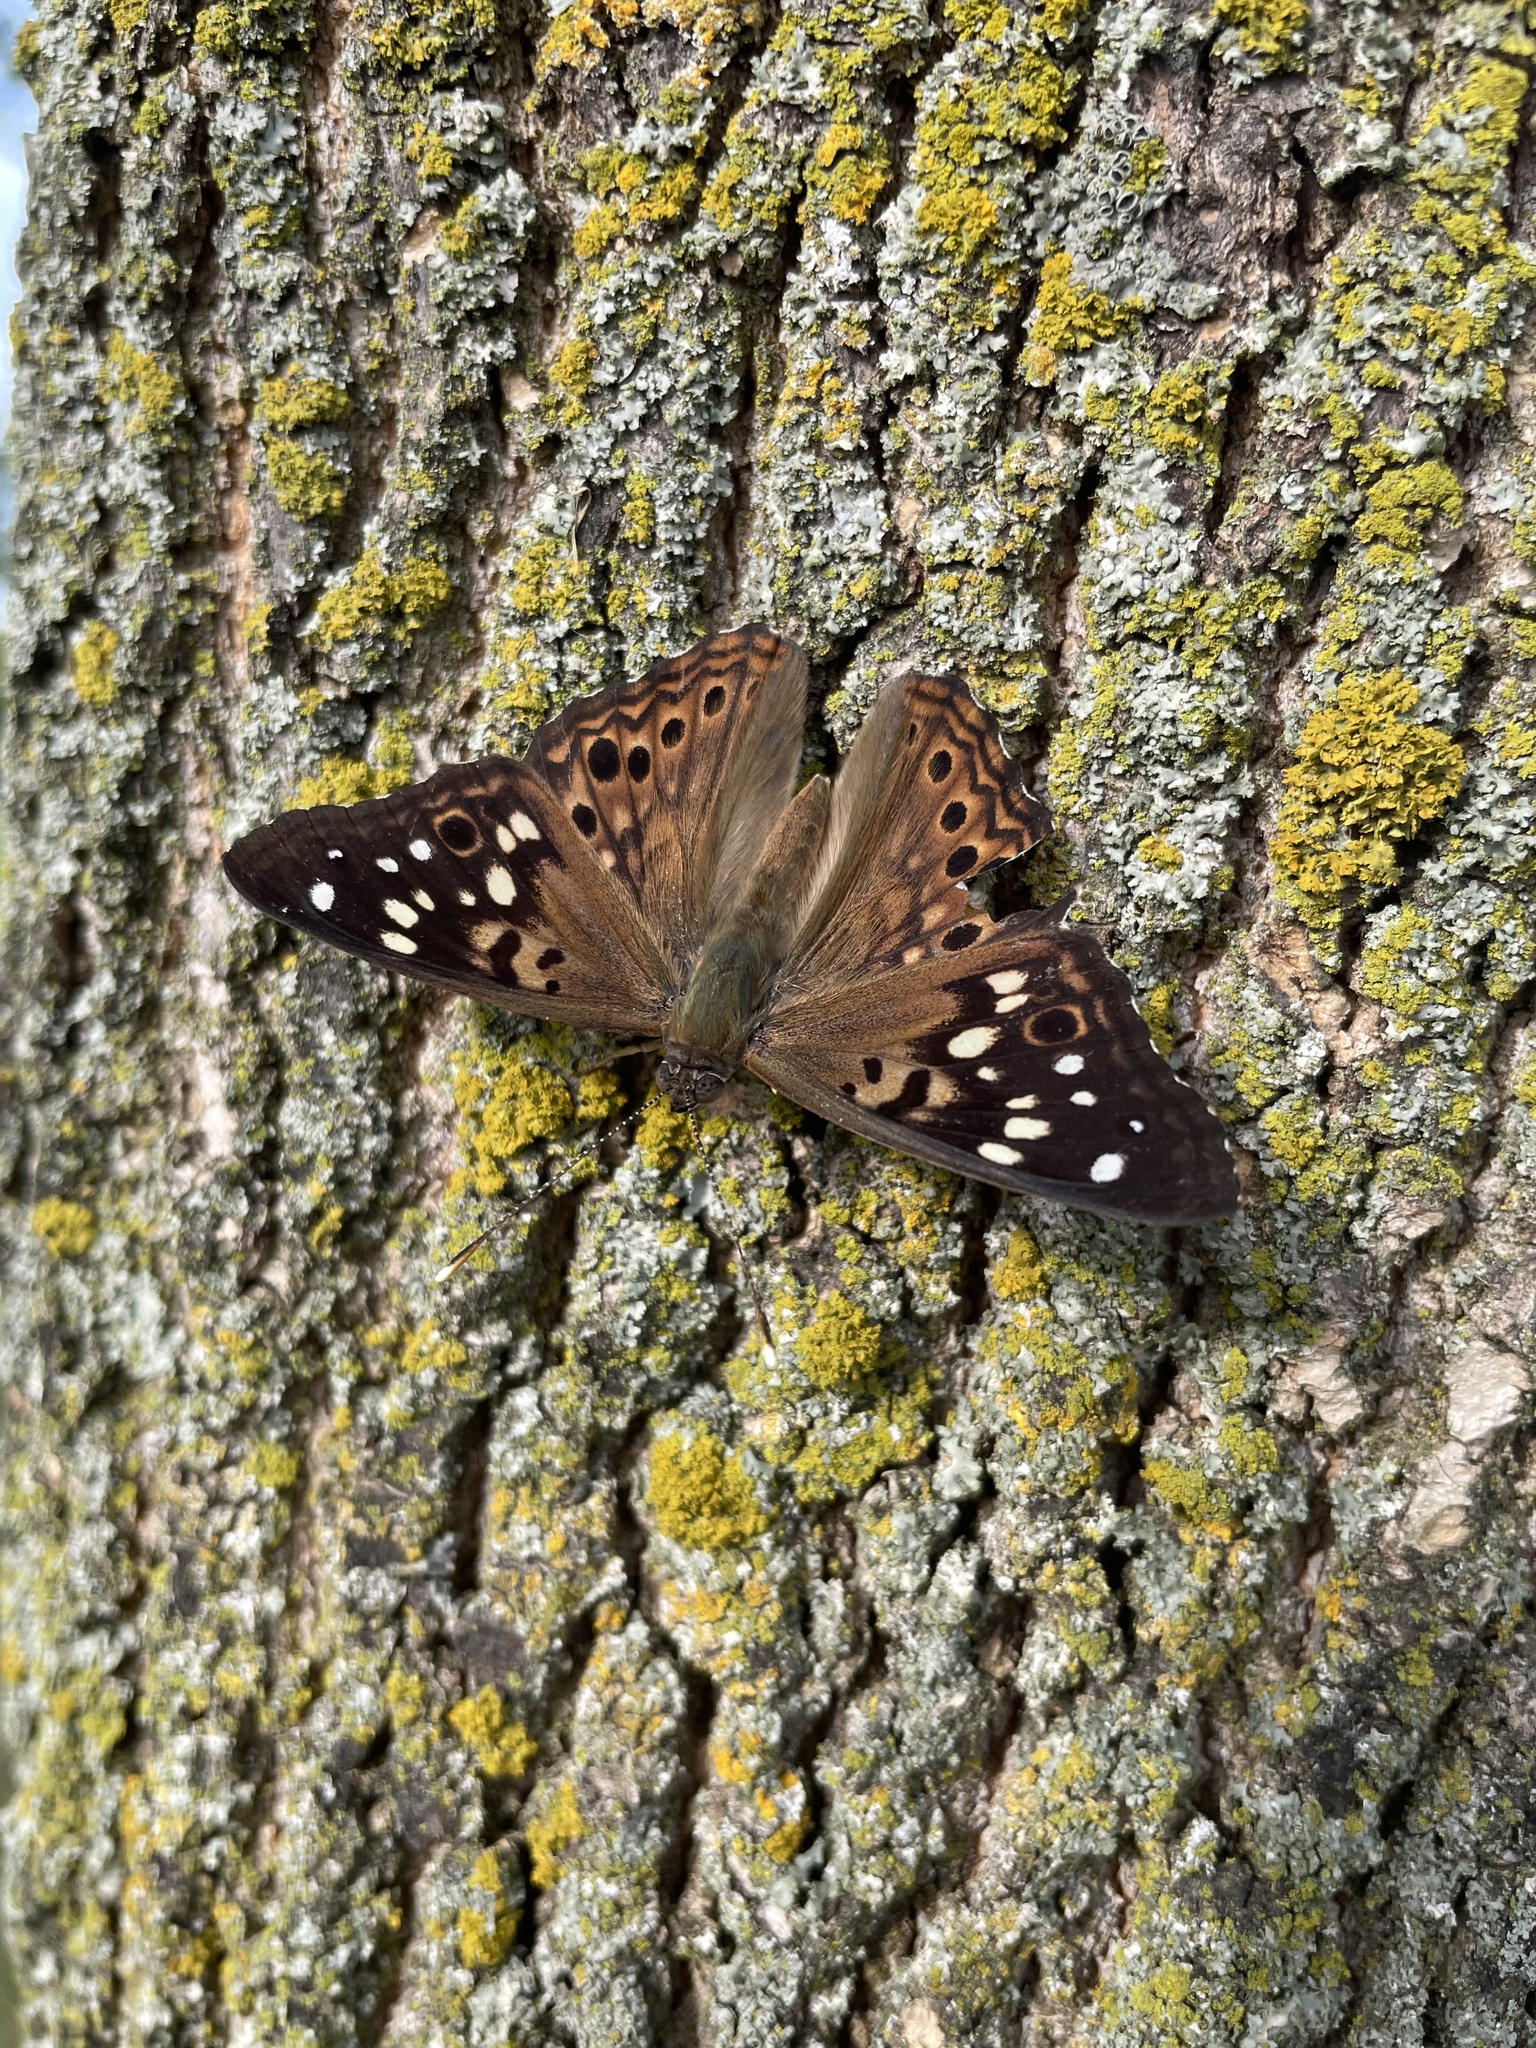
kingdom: Animalia
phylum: Arthropoda
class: Insecta
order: Lepidoptera
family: Nymphalidae
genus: Asterocampa
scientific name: Asterocampa celtis
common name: Hackberry emperor
